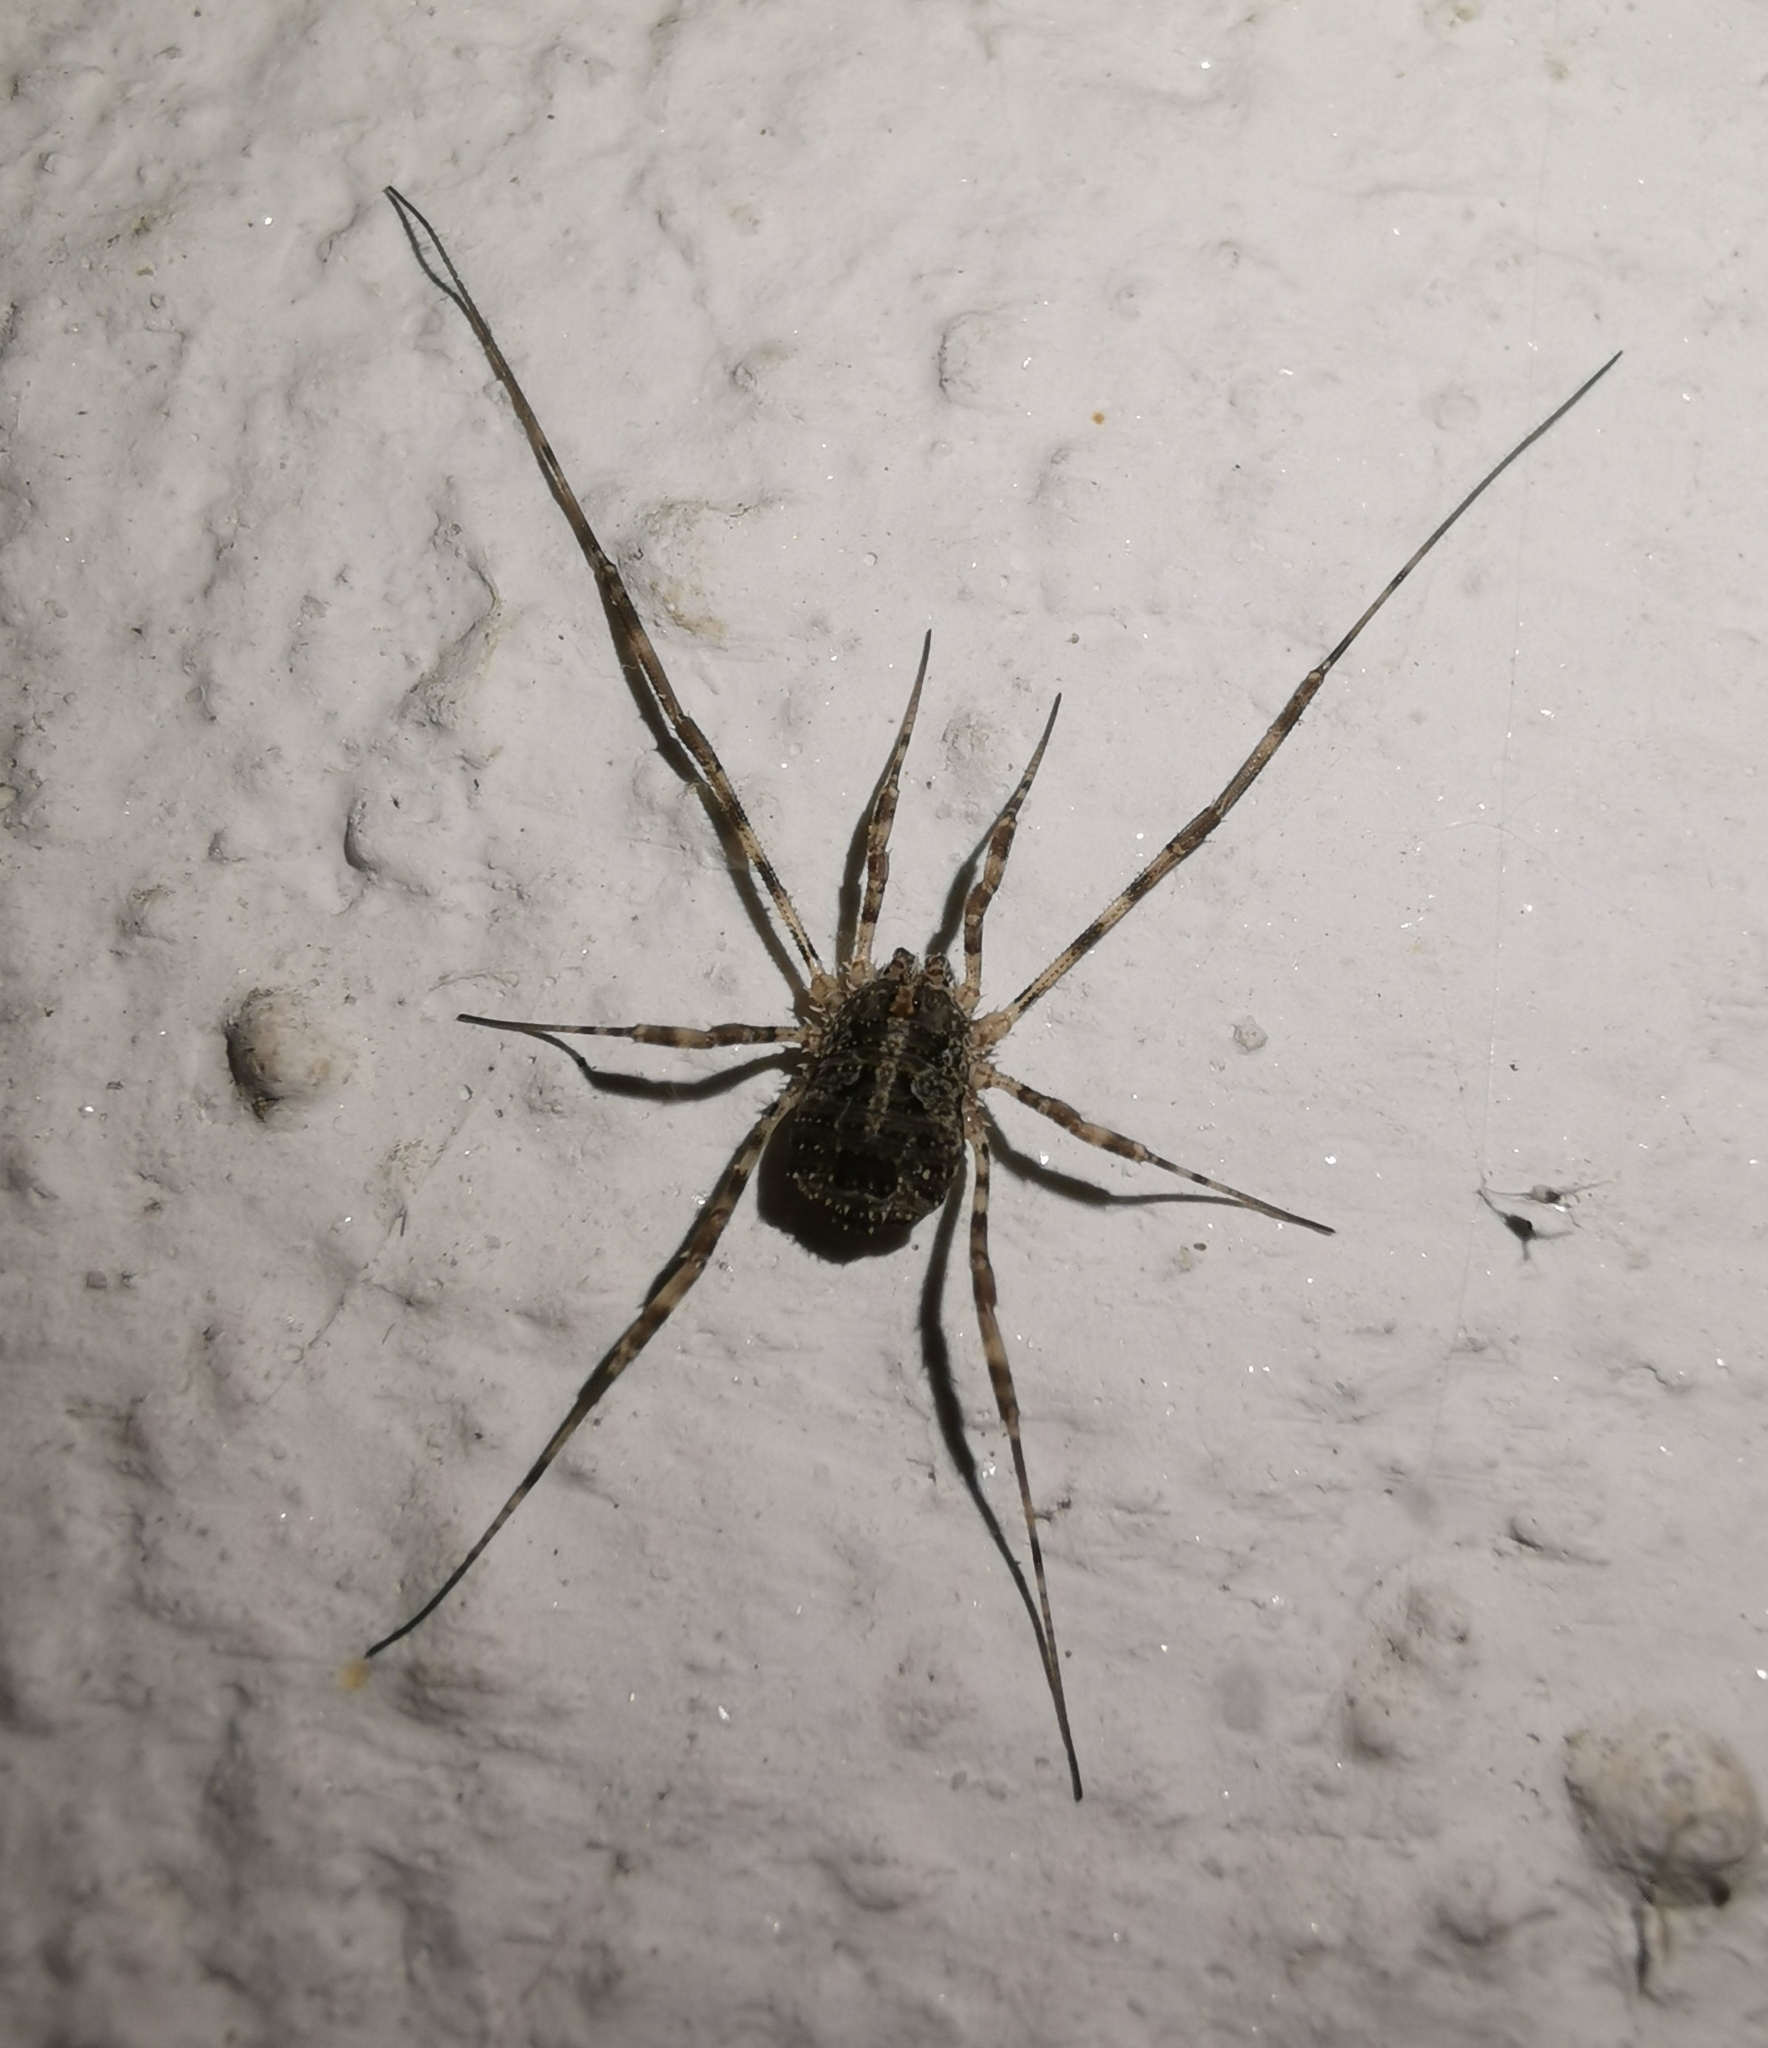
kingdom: Animalia
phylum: Arthropoda
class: Arachnida
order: Opiliones
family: Phalangiidae
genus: Lacinius
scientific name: Lacinius dentiger
